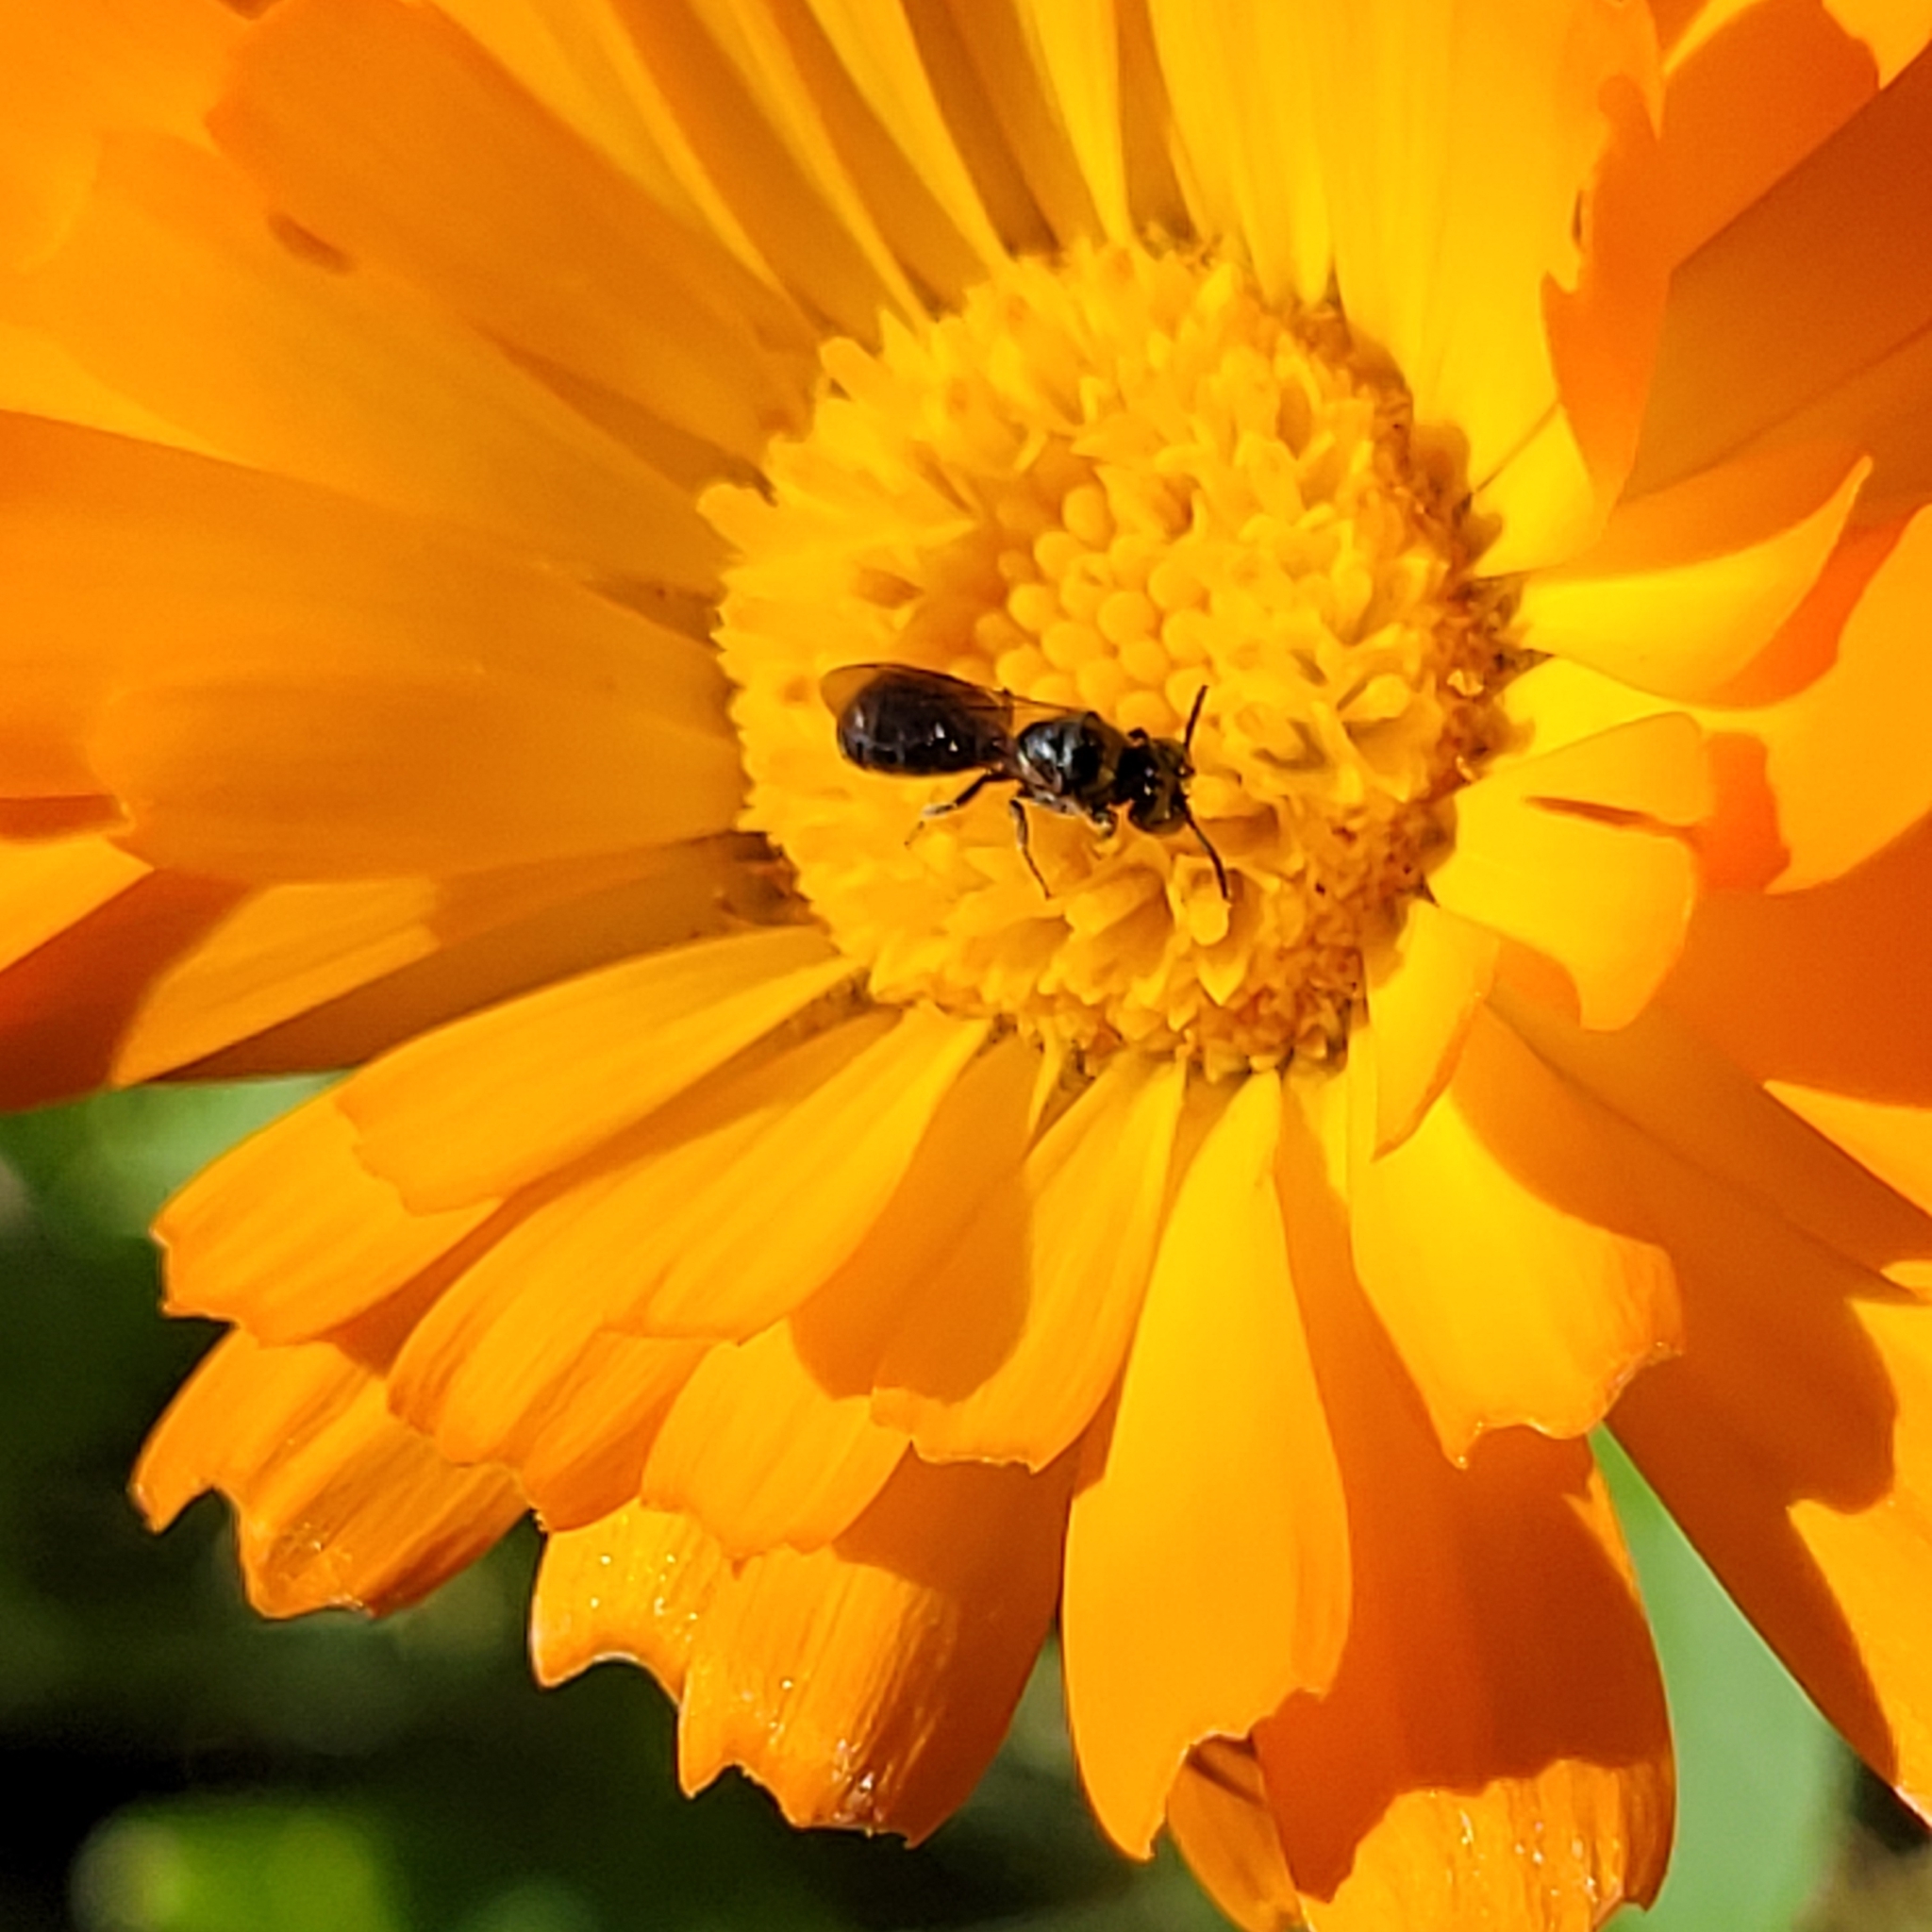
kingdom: Animalia
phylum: Arthropoda
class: Insecta
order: Hymenoptera
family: Apidae
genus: Ceratina
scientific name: Ceratina calcarata
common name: Spurred carpenter bee
